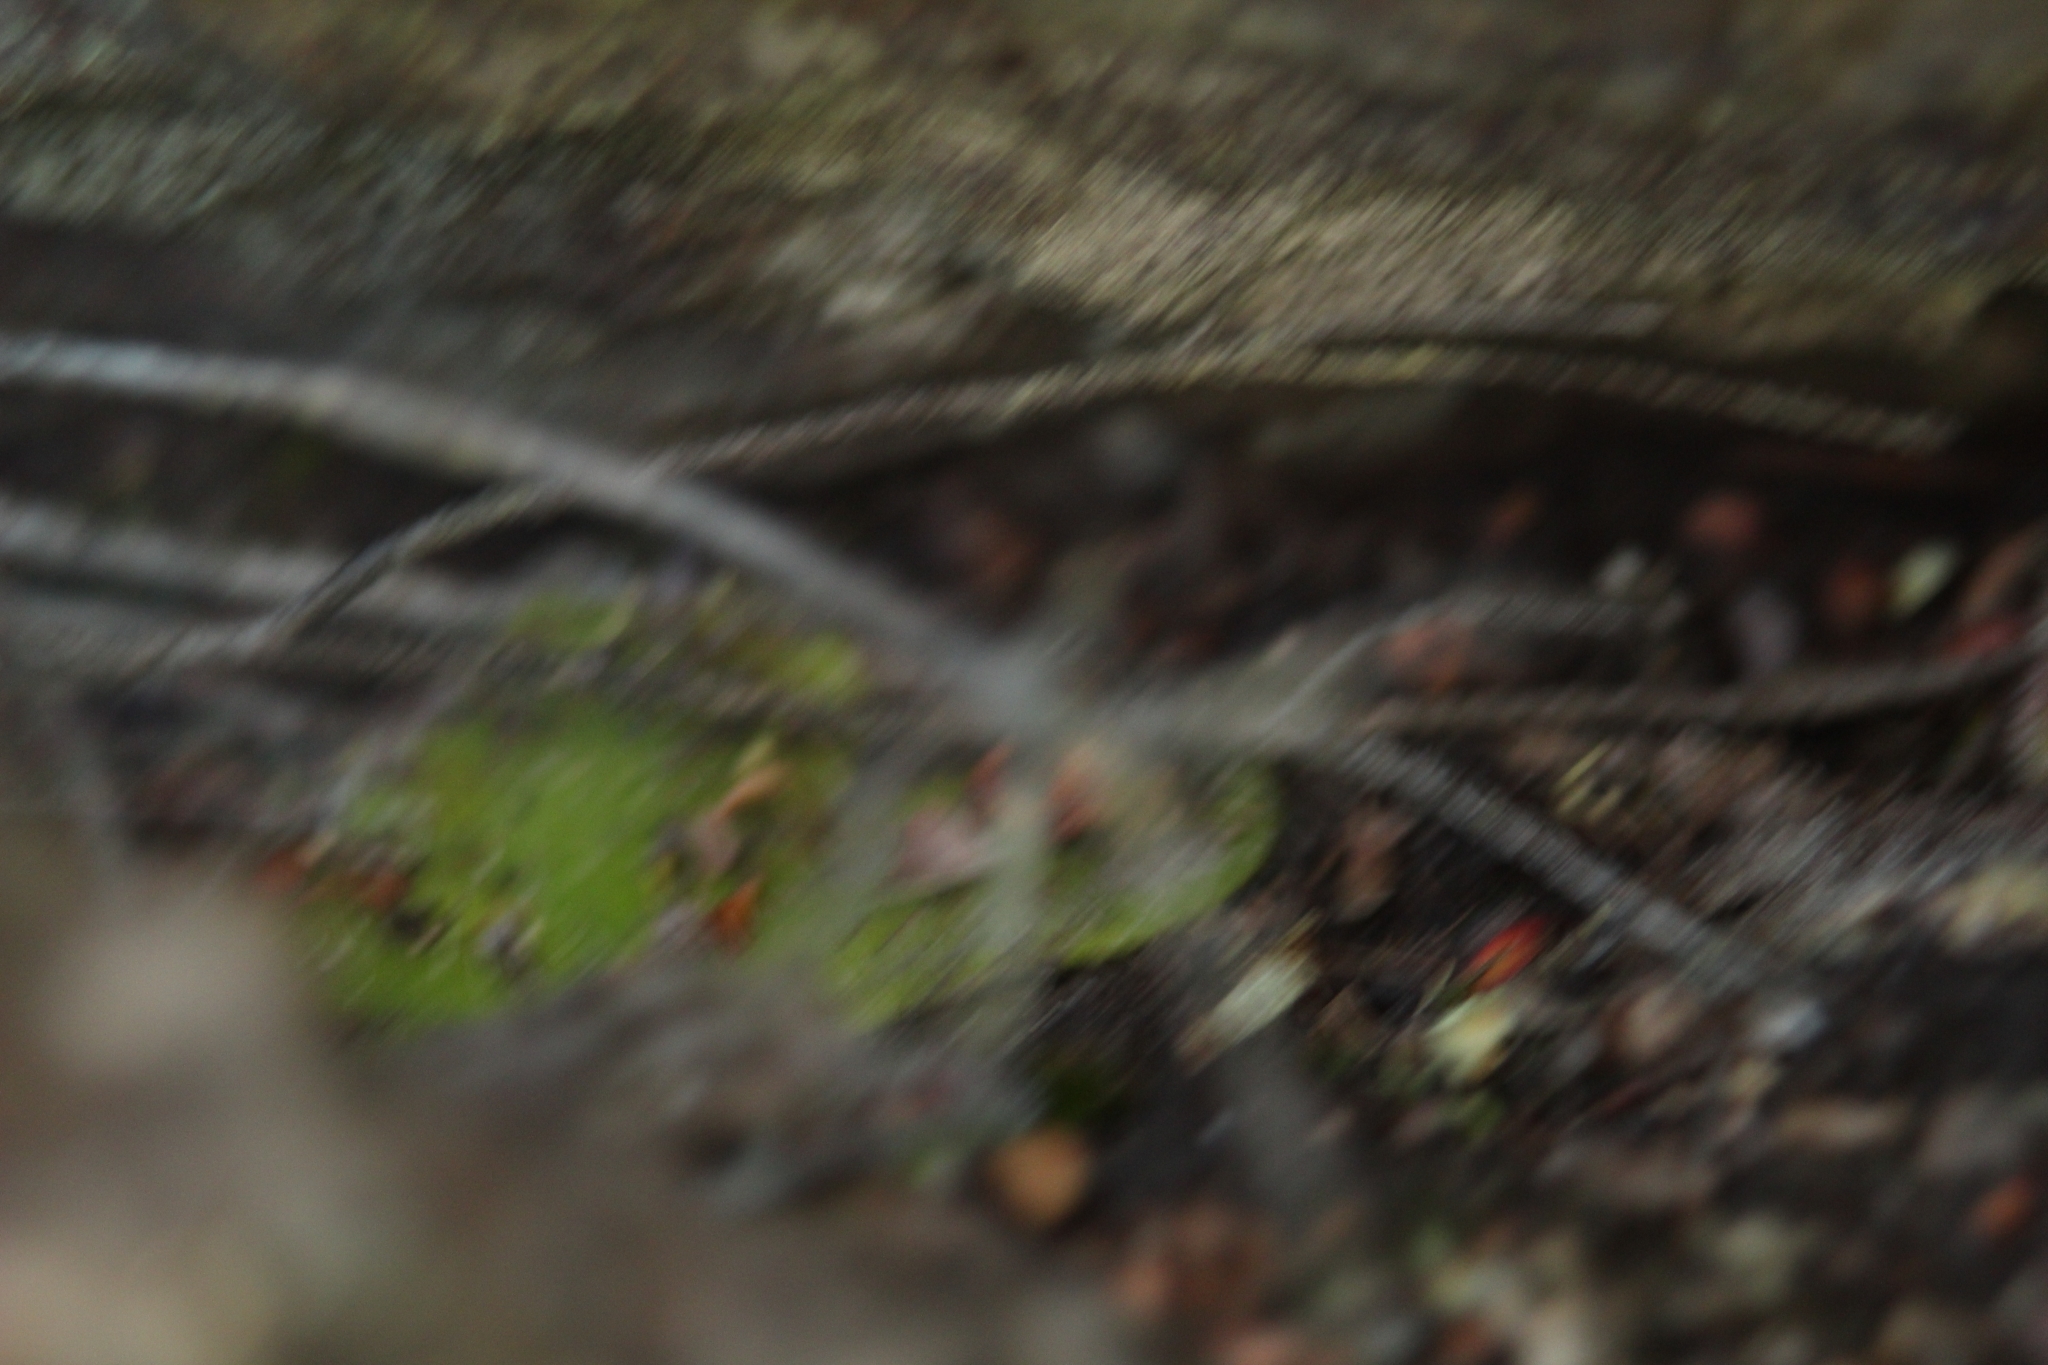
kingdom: Plantae
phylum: Tracheophyta
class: Magnoliopsida
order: Caryophyllales
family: Droseraceae
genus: Drosera
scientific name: Drosera erythrorhiza
